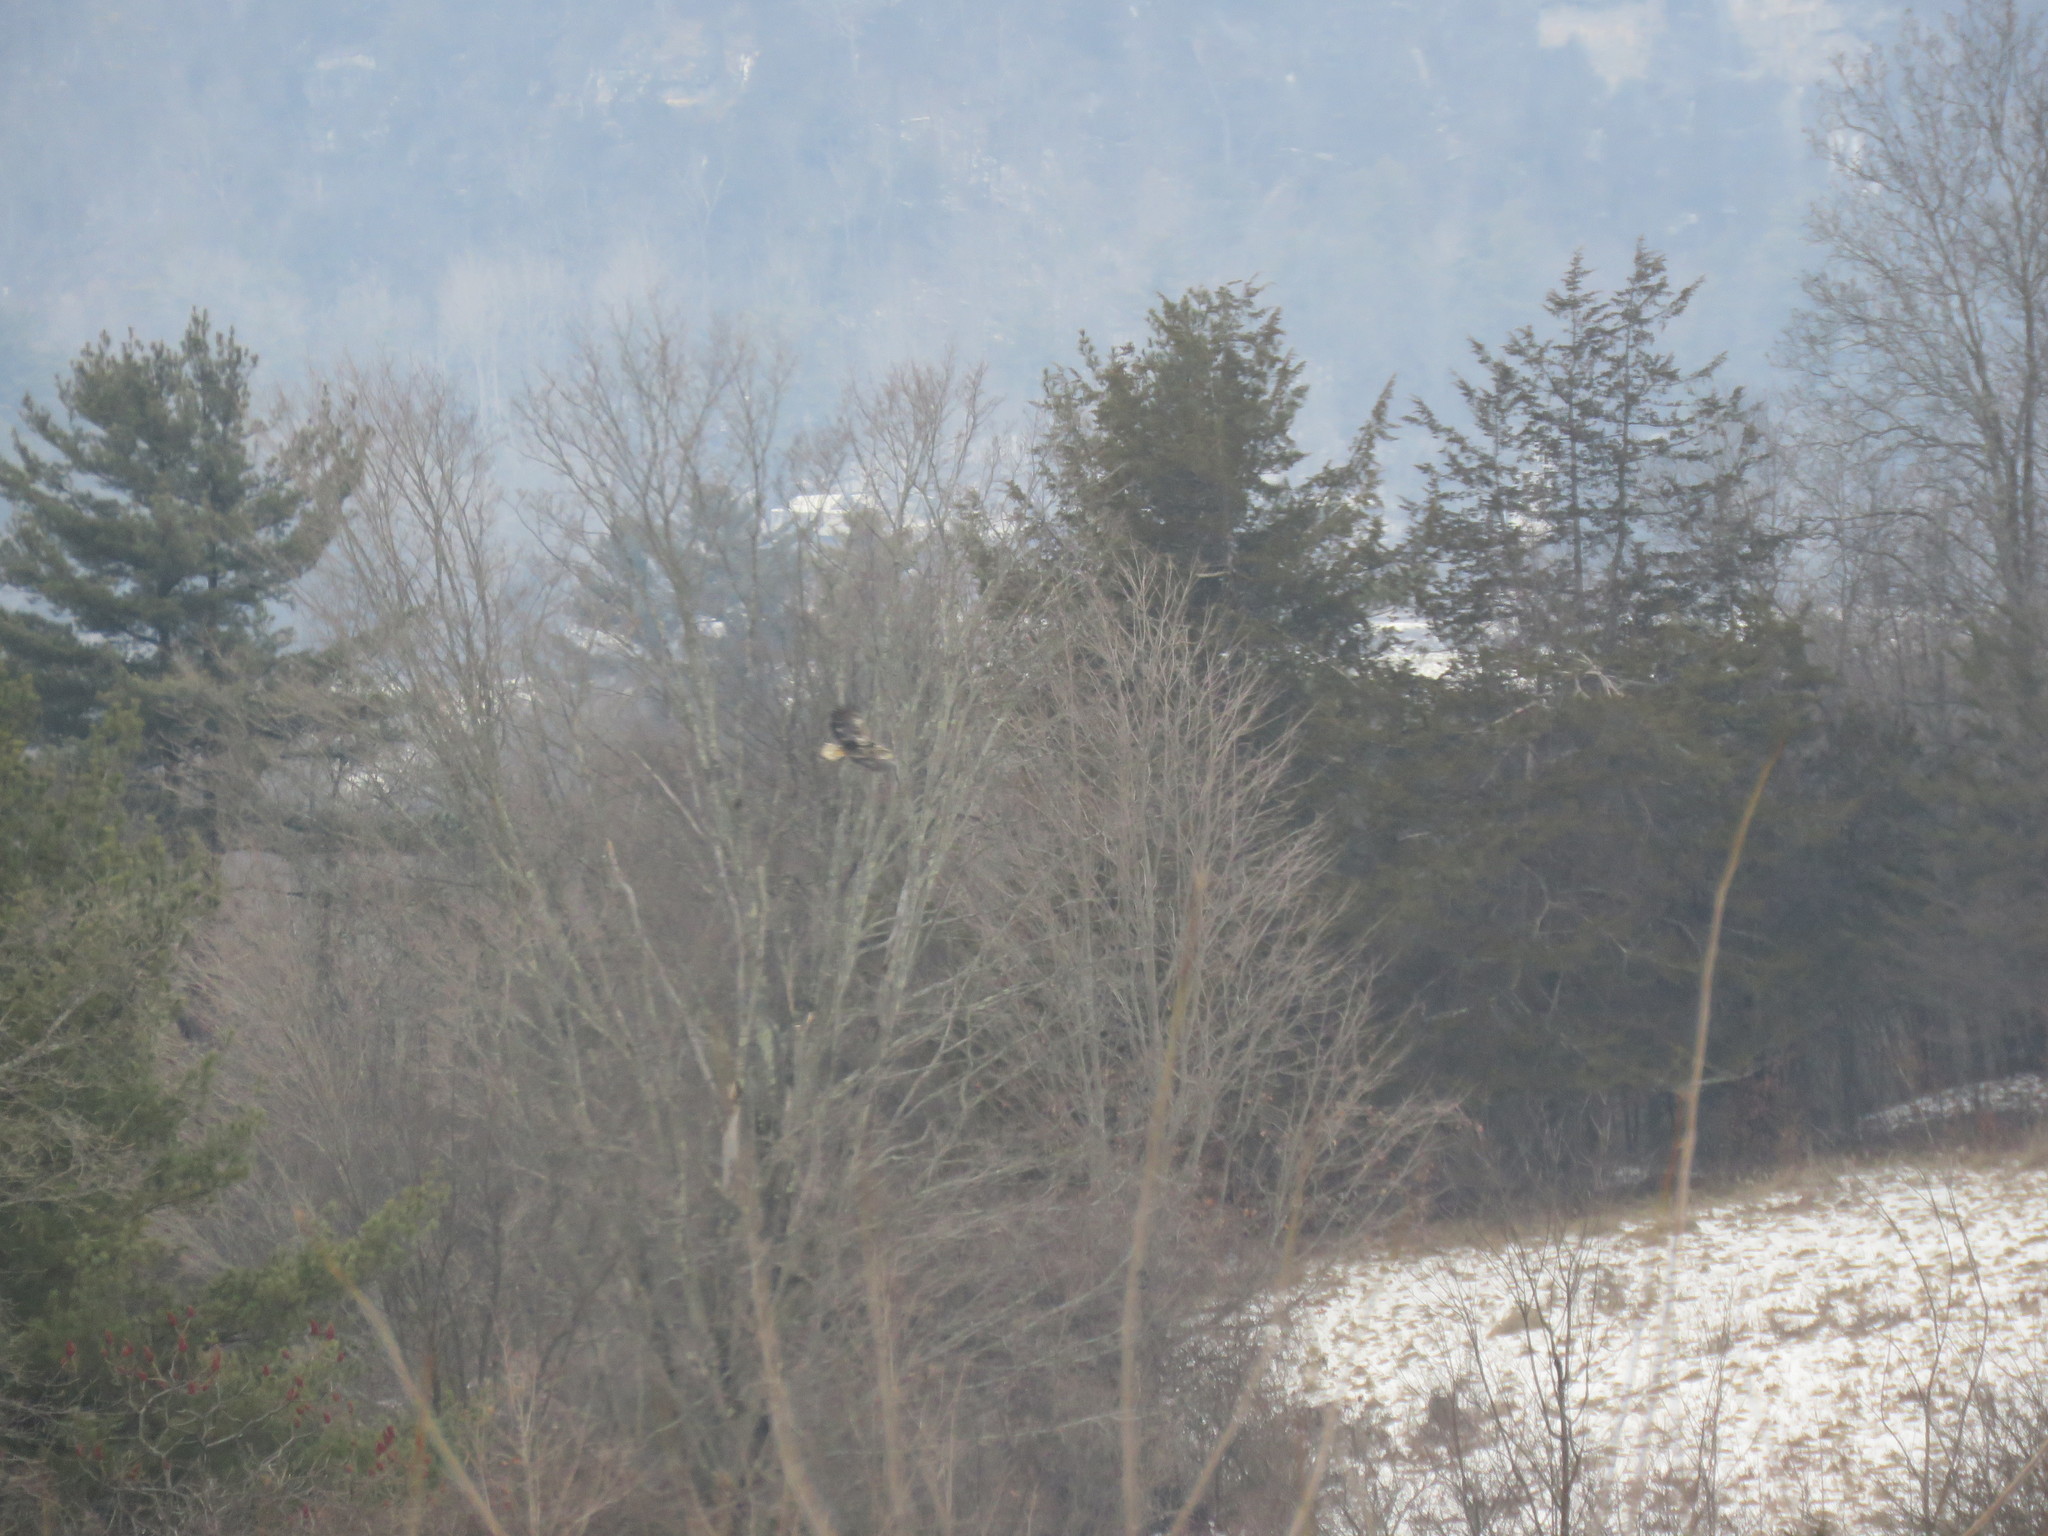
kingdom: Animalia
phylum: Chordata
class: Aves
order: Accipitriformes
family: Accipitridae
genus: Haliaeetus
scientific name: Haliaeetus leucocephalus
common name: Bald eagle
